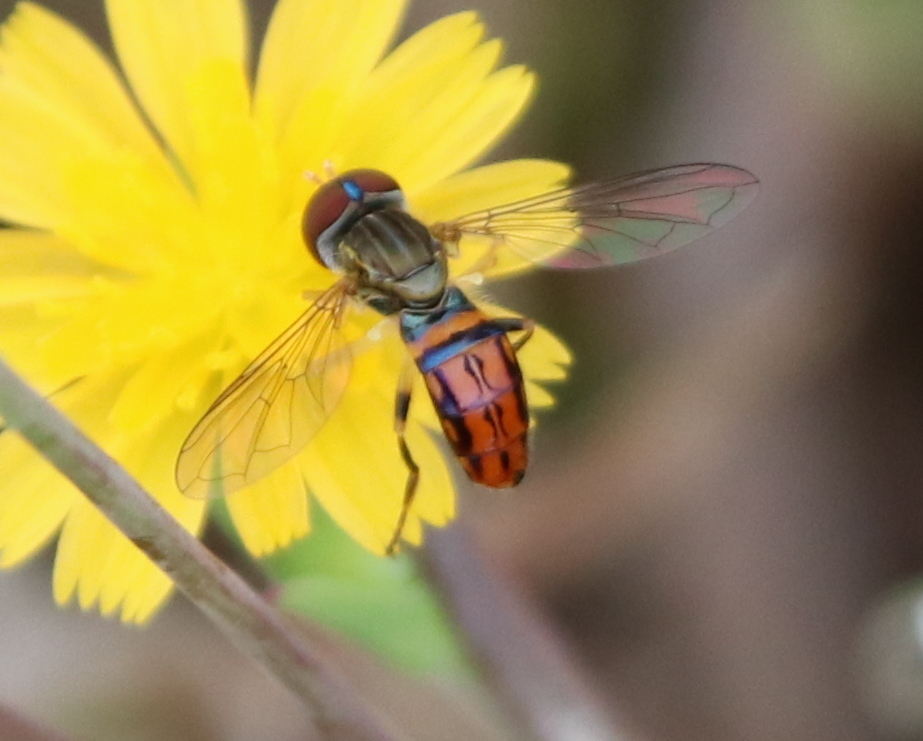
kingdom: Animalia
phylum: Arthropoda
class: Insecta
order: Diptera
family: Syrphidae
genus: Toxomerus
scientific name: Toxomerus boscii
